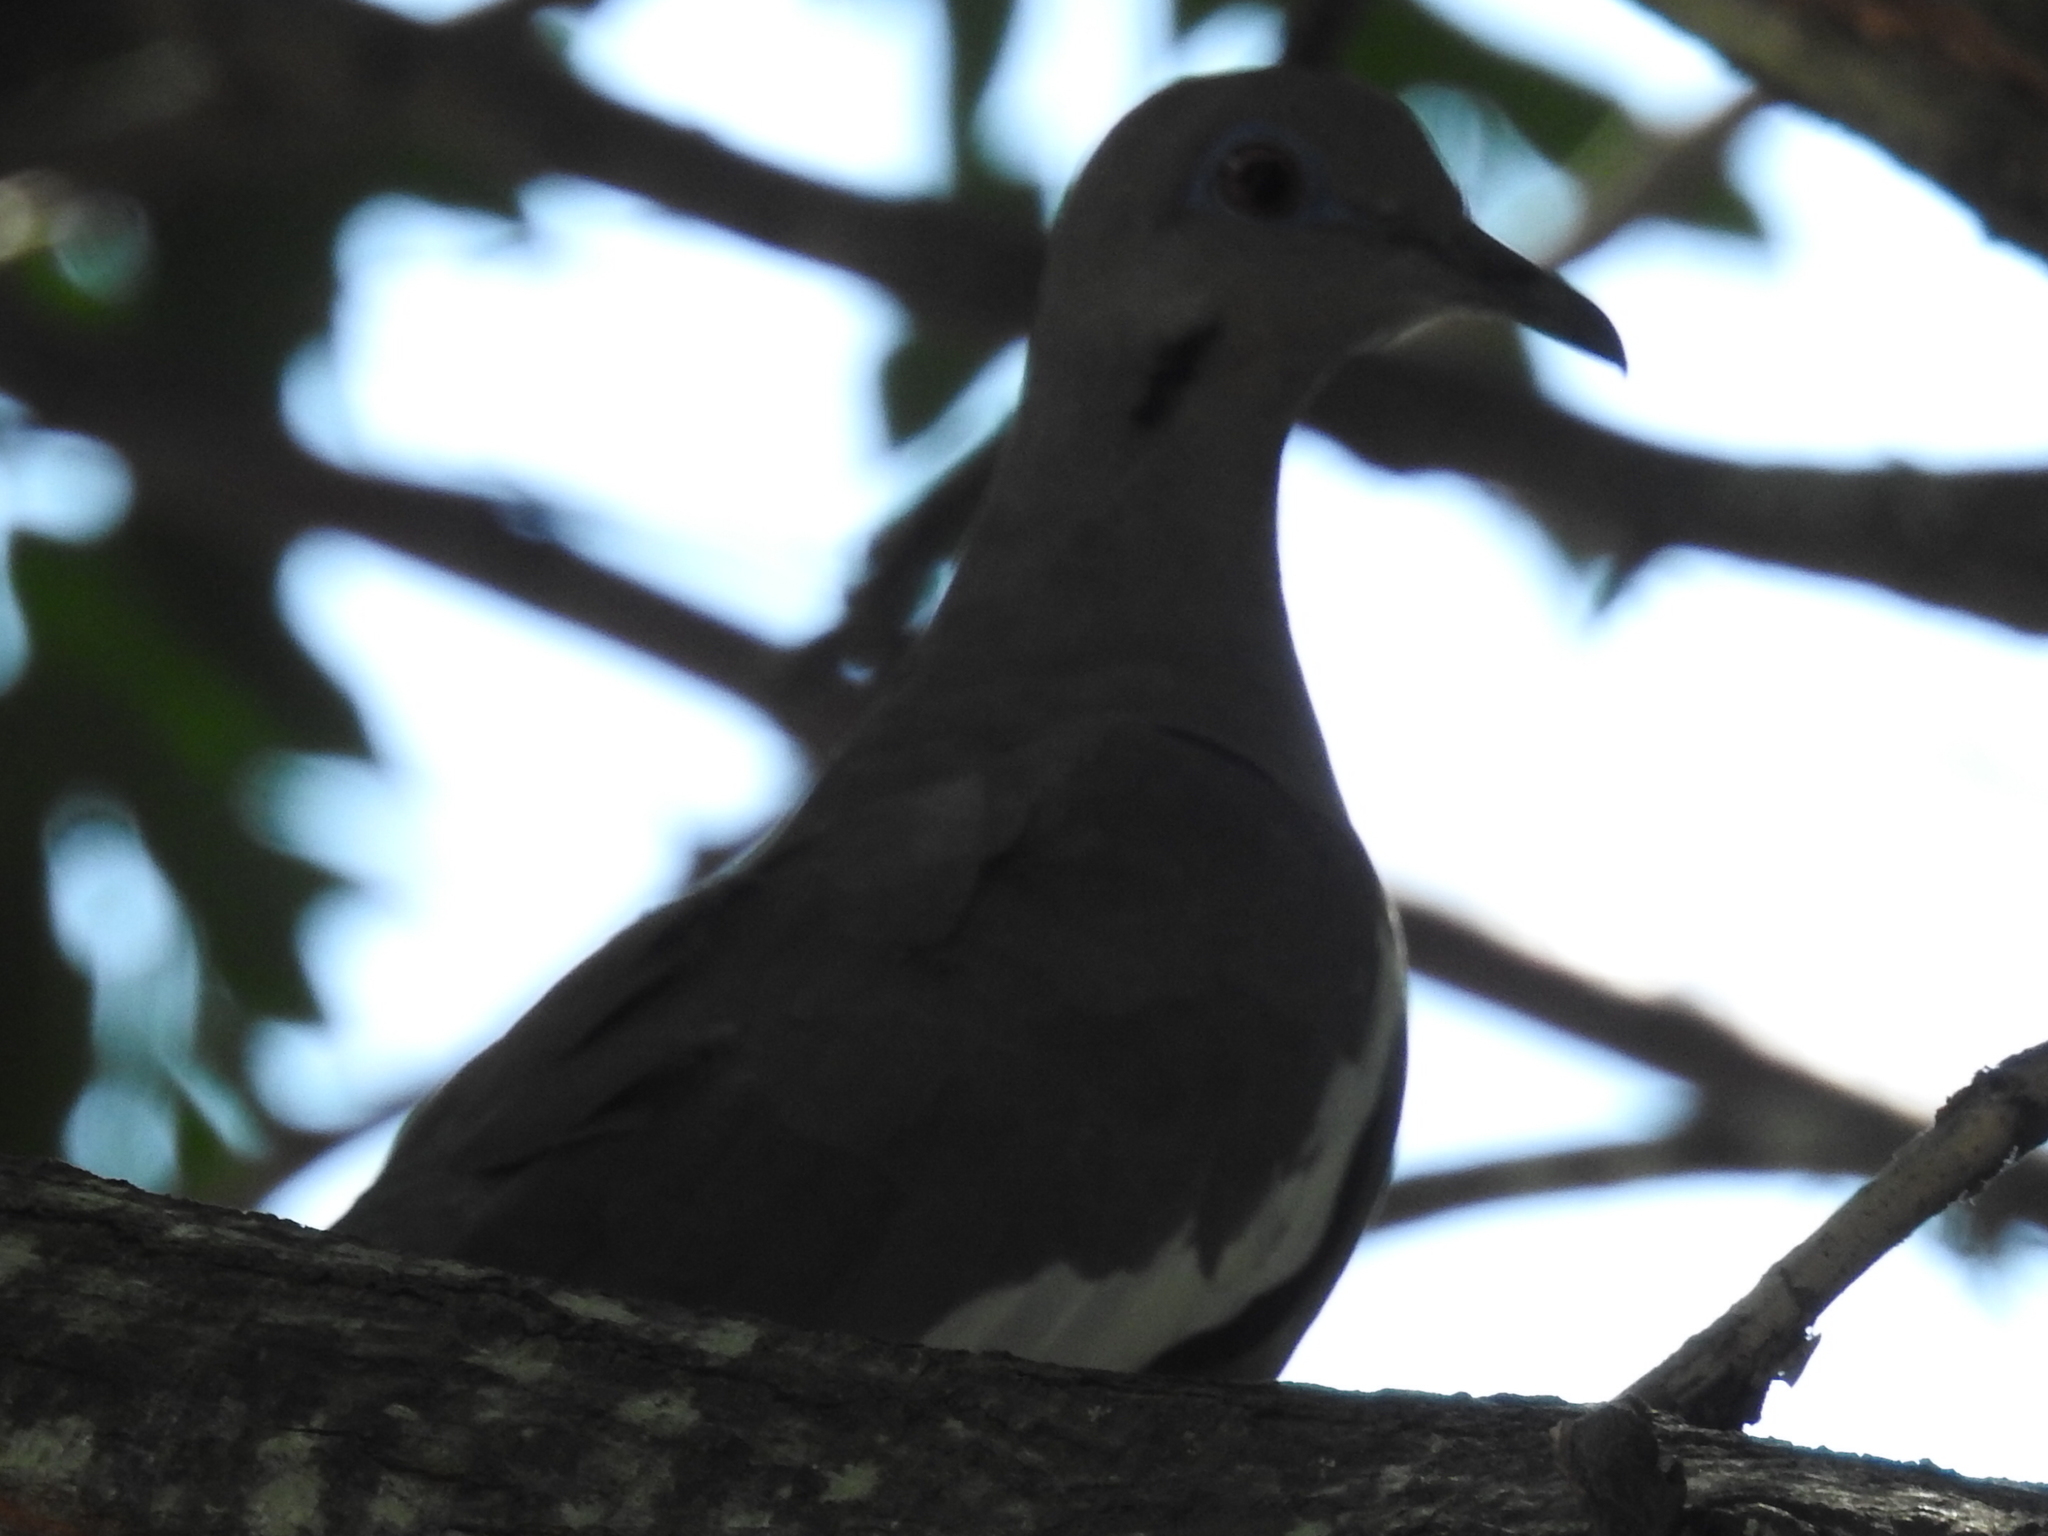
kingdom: Animalia
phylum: Chordata
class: Aves
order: Columbiformes
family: Columbidae
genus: Zenaida
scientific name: Zenaida asiatica
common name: White-winged dove
